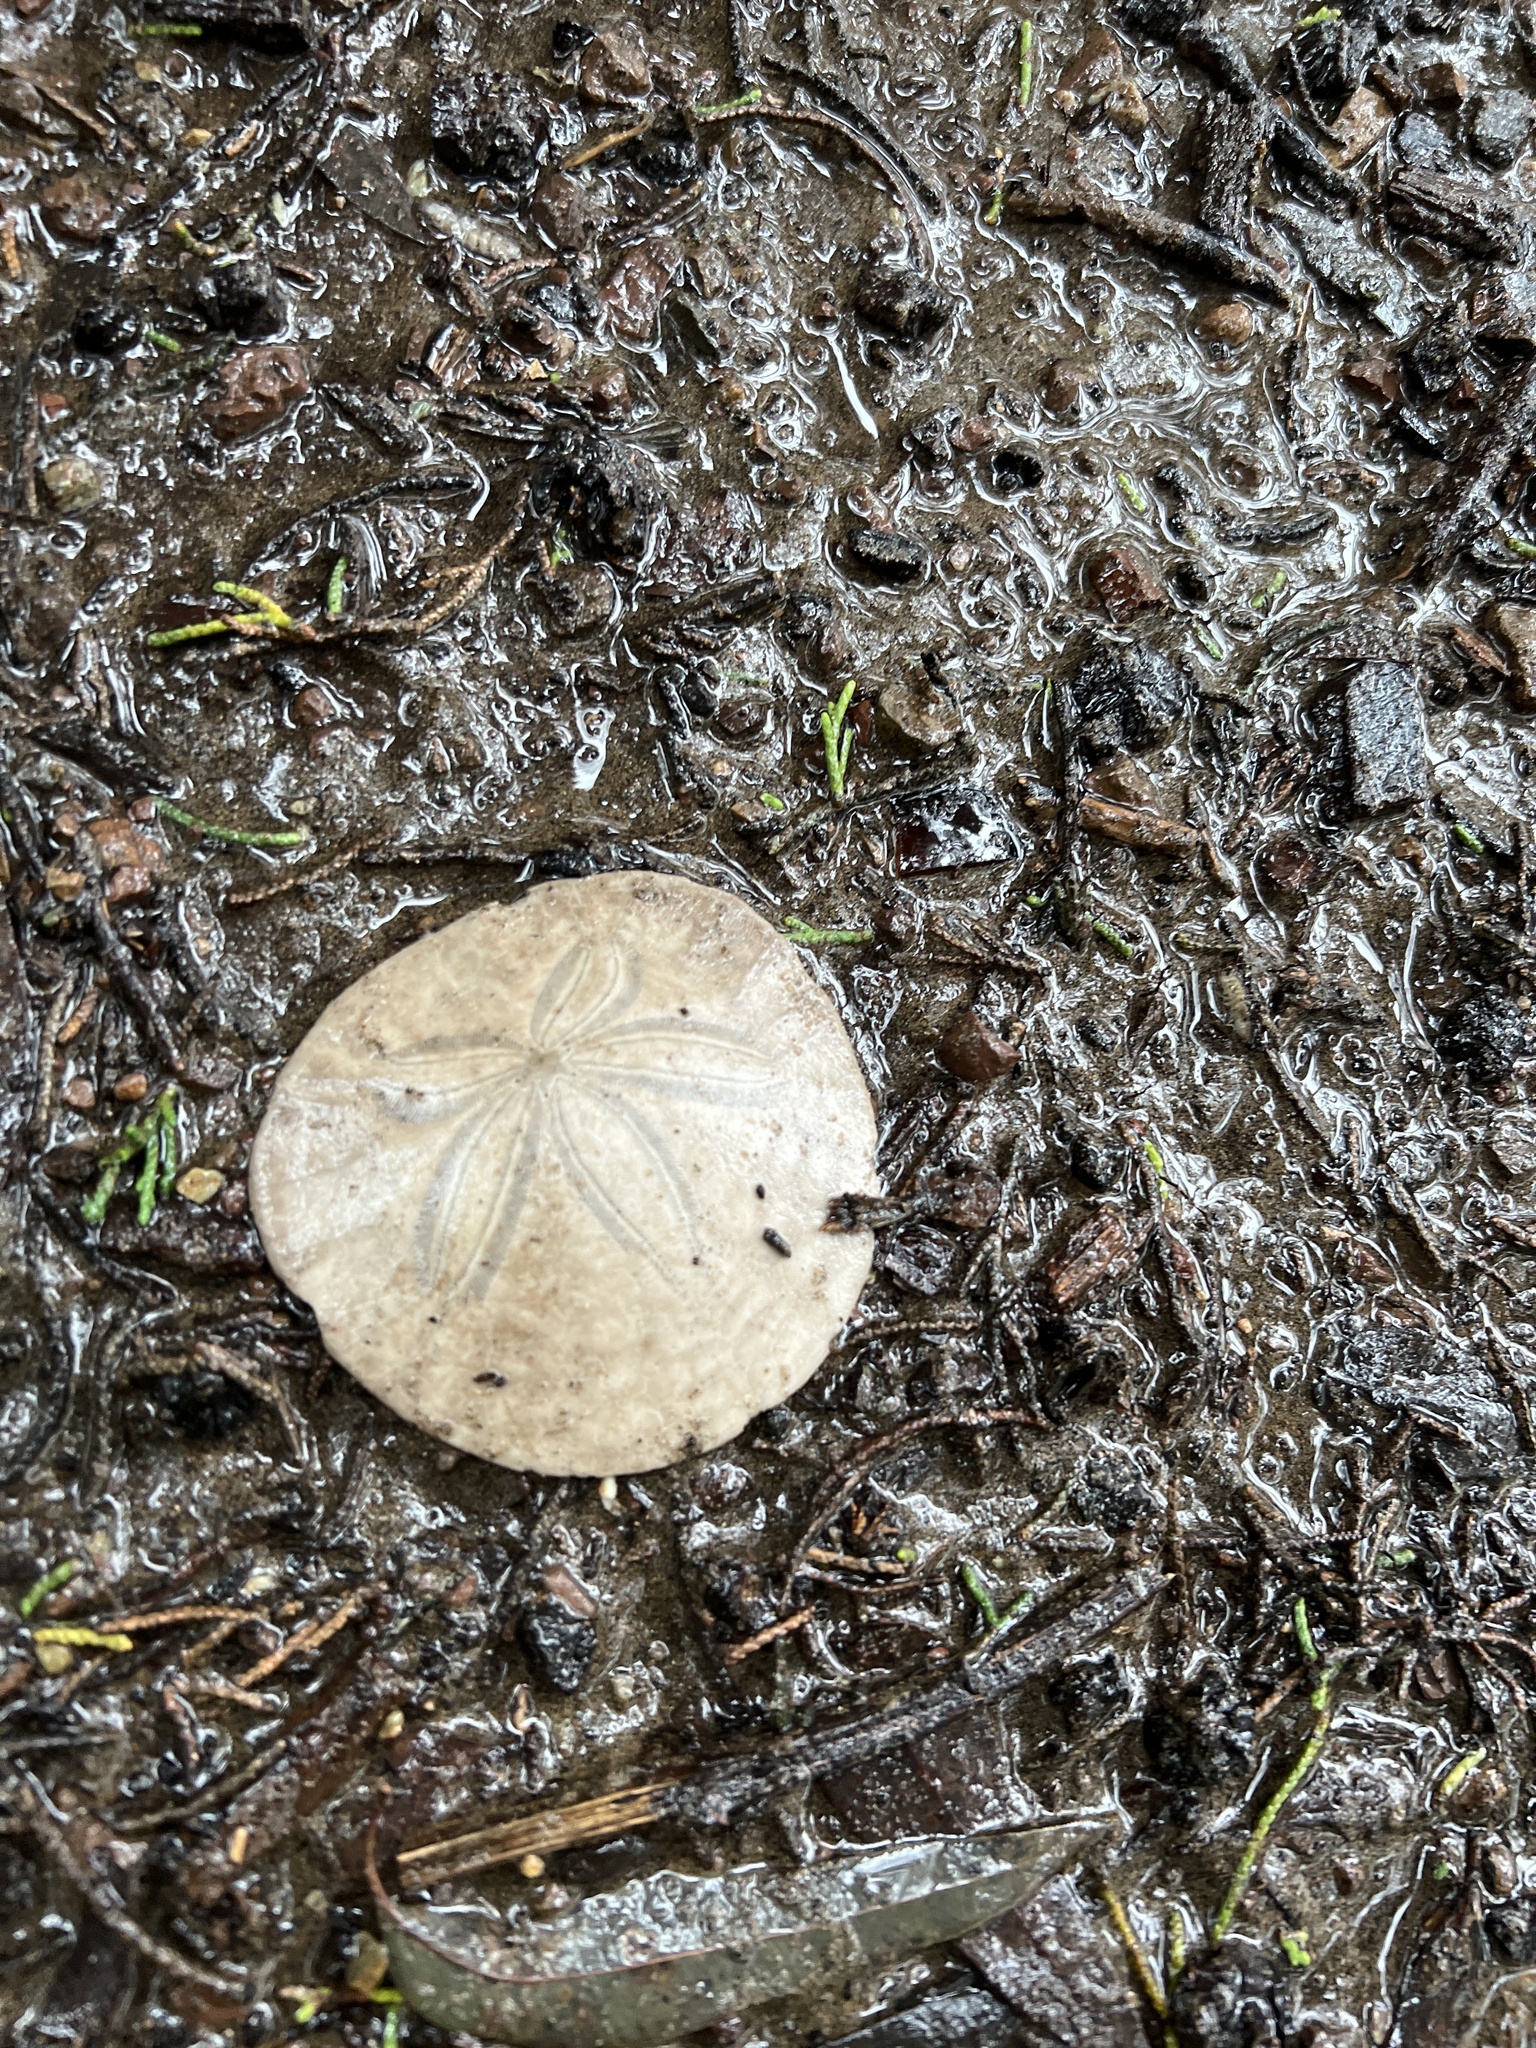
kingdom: Animalia
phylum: Echinodermata
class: Echinoidea
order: Echinolampadacea
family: Dendrasteridae
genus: Dendraster
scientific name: Dendraster excentricus
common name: Eccentric sand dollar sea urchin
